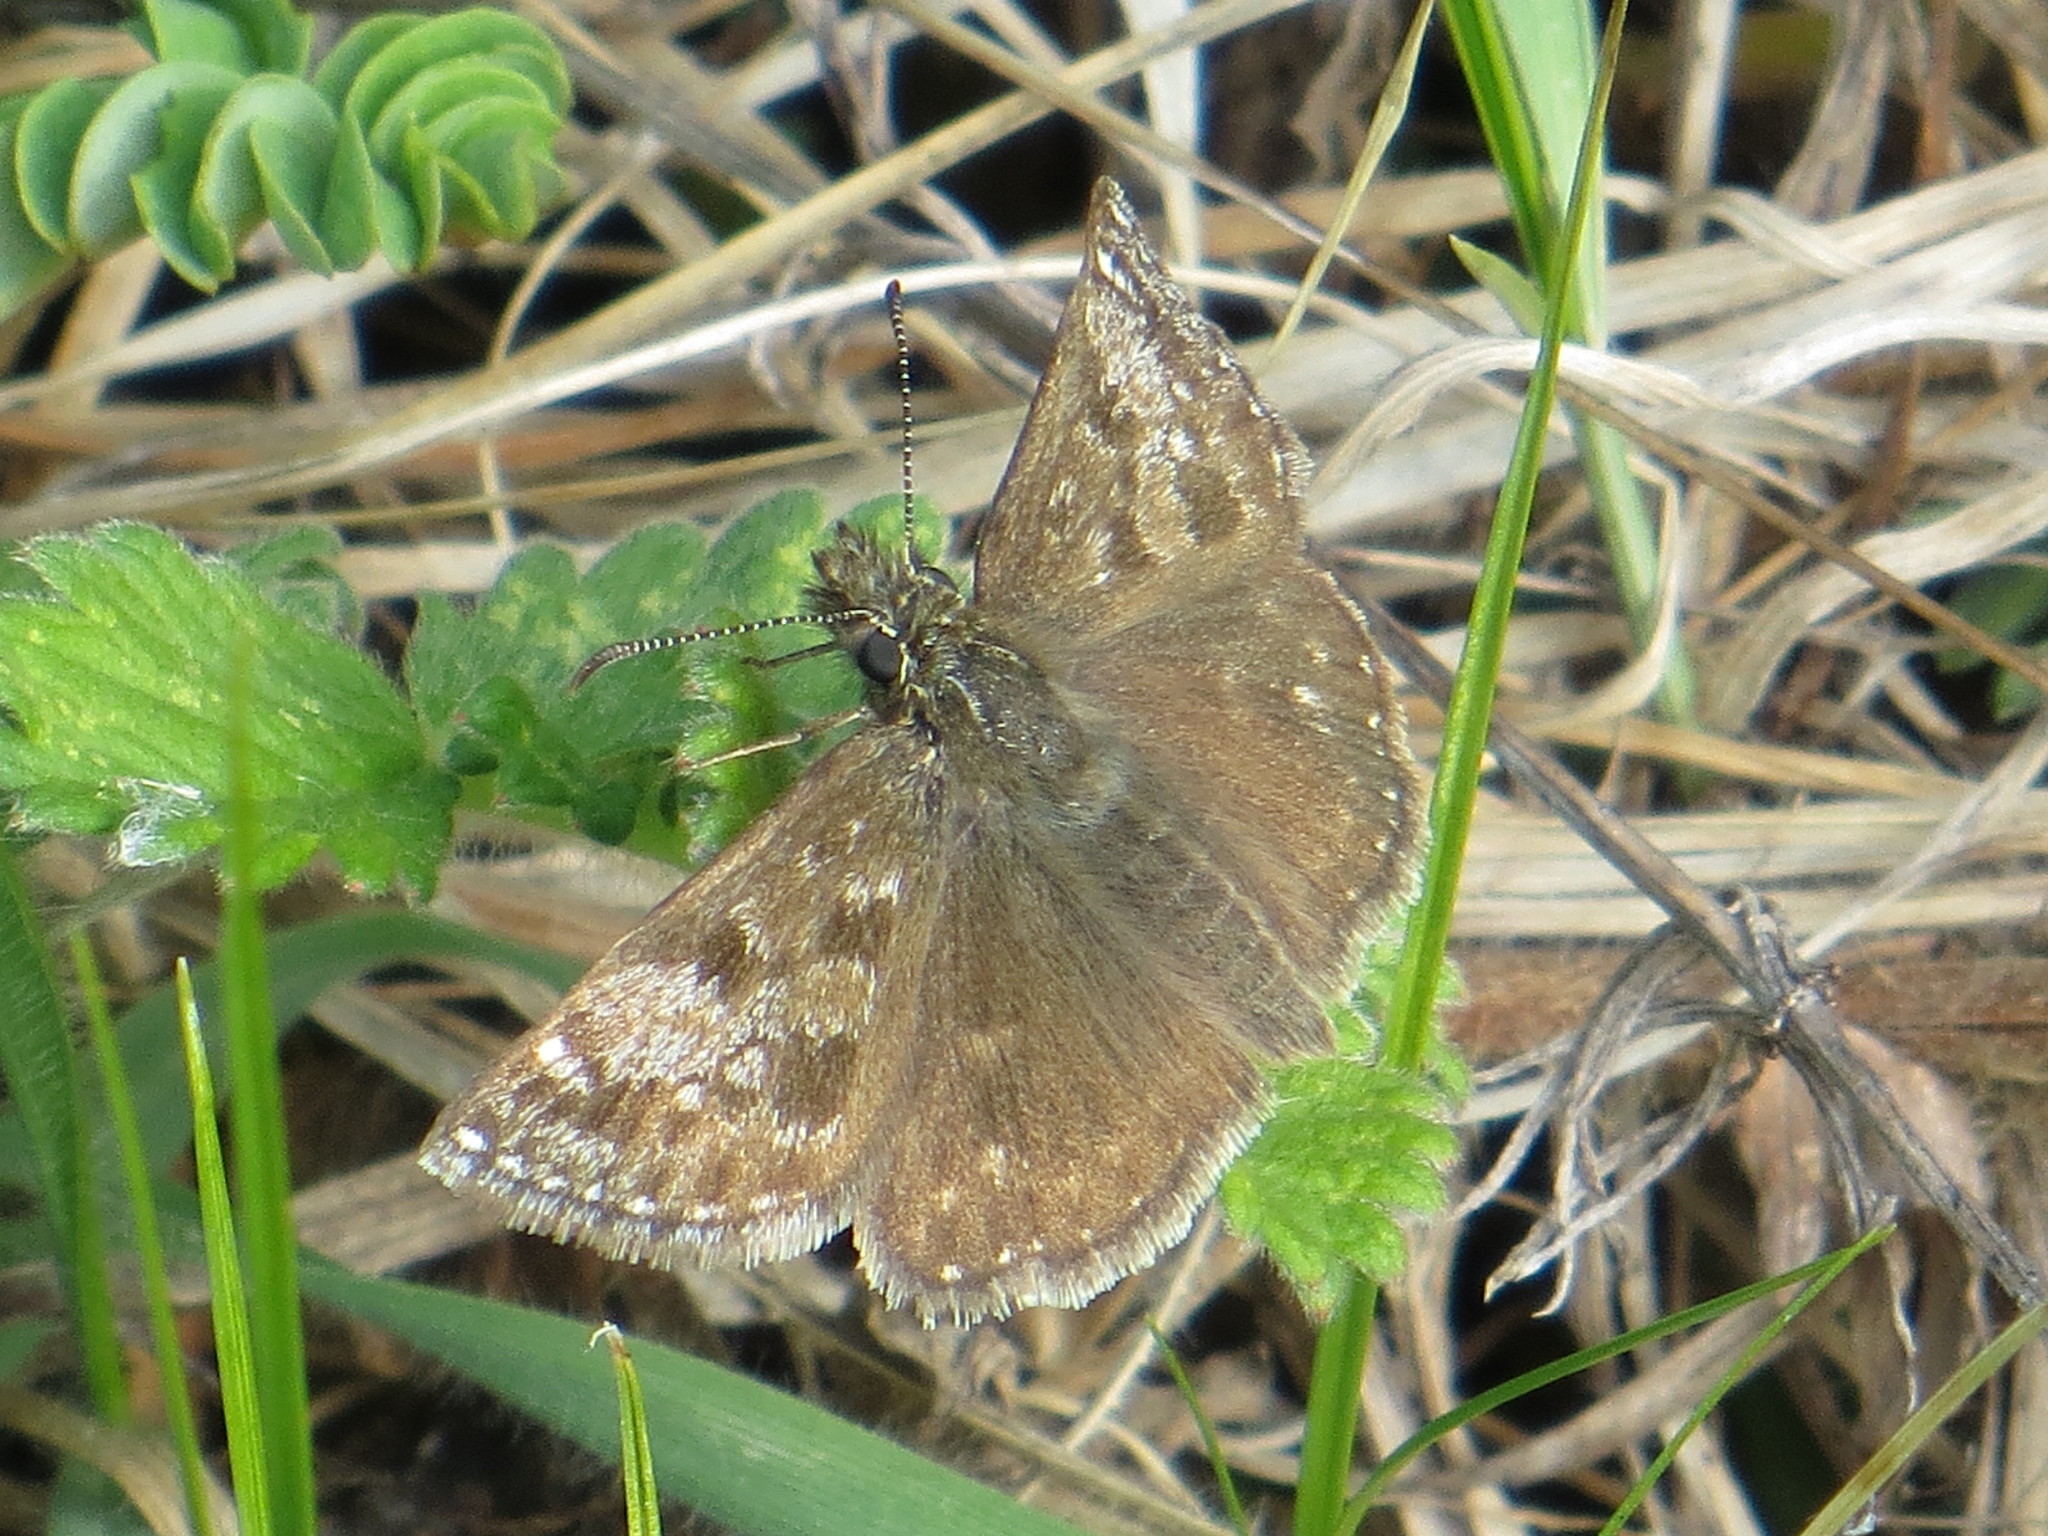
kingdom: Animalia
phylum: Arthropoda
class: Insecta
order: Lepidoptera
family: Hesperiidae
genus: Erynnis
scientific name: Erynnis tages
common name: Dingy skipper
